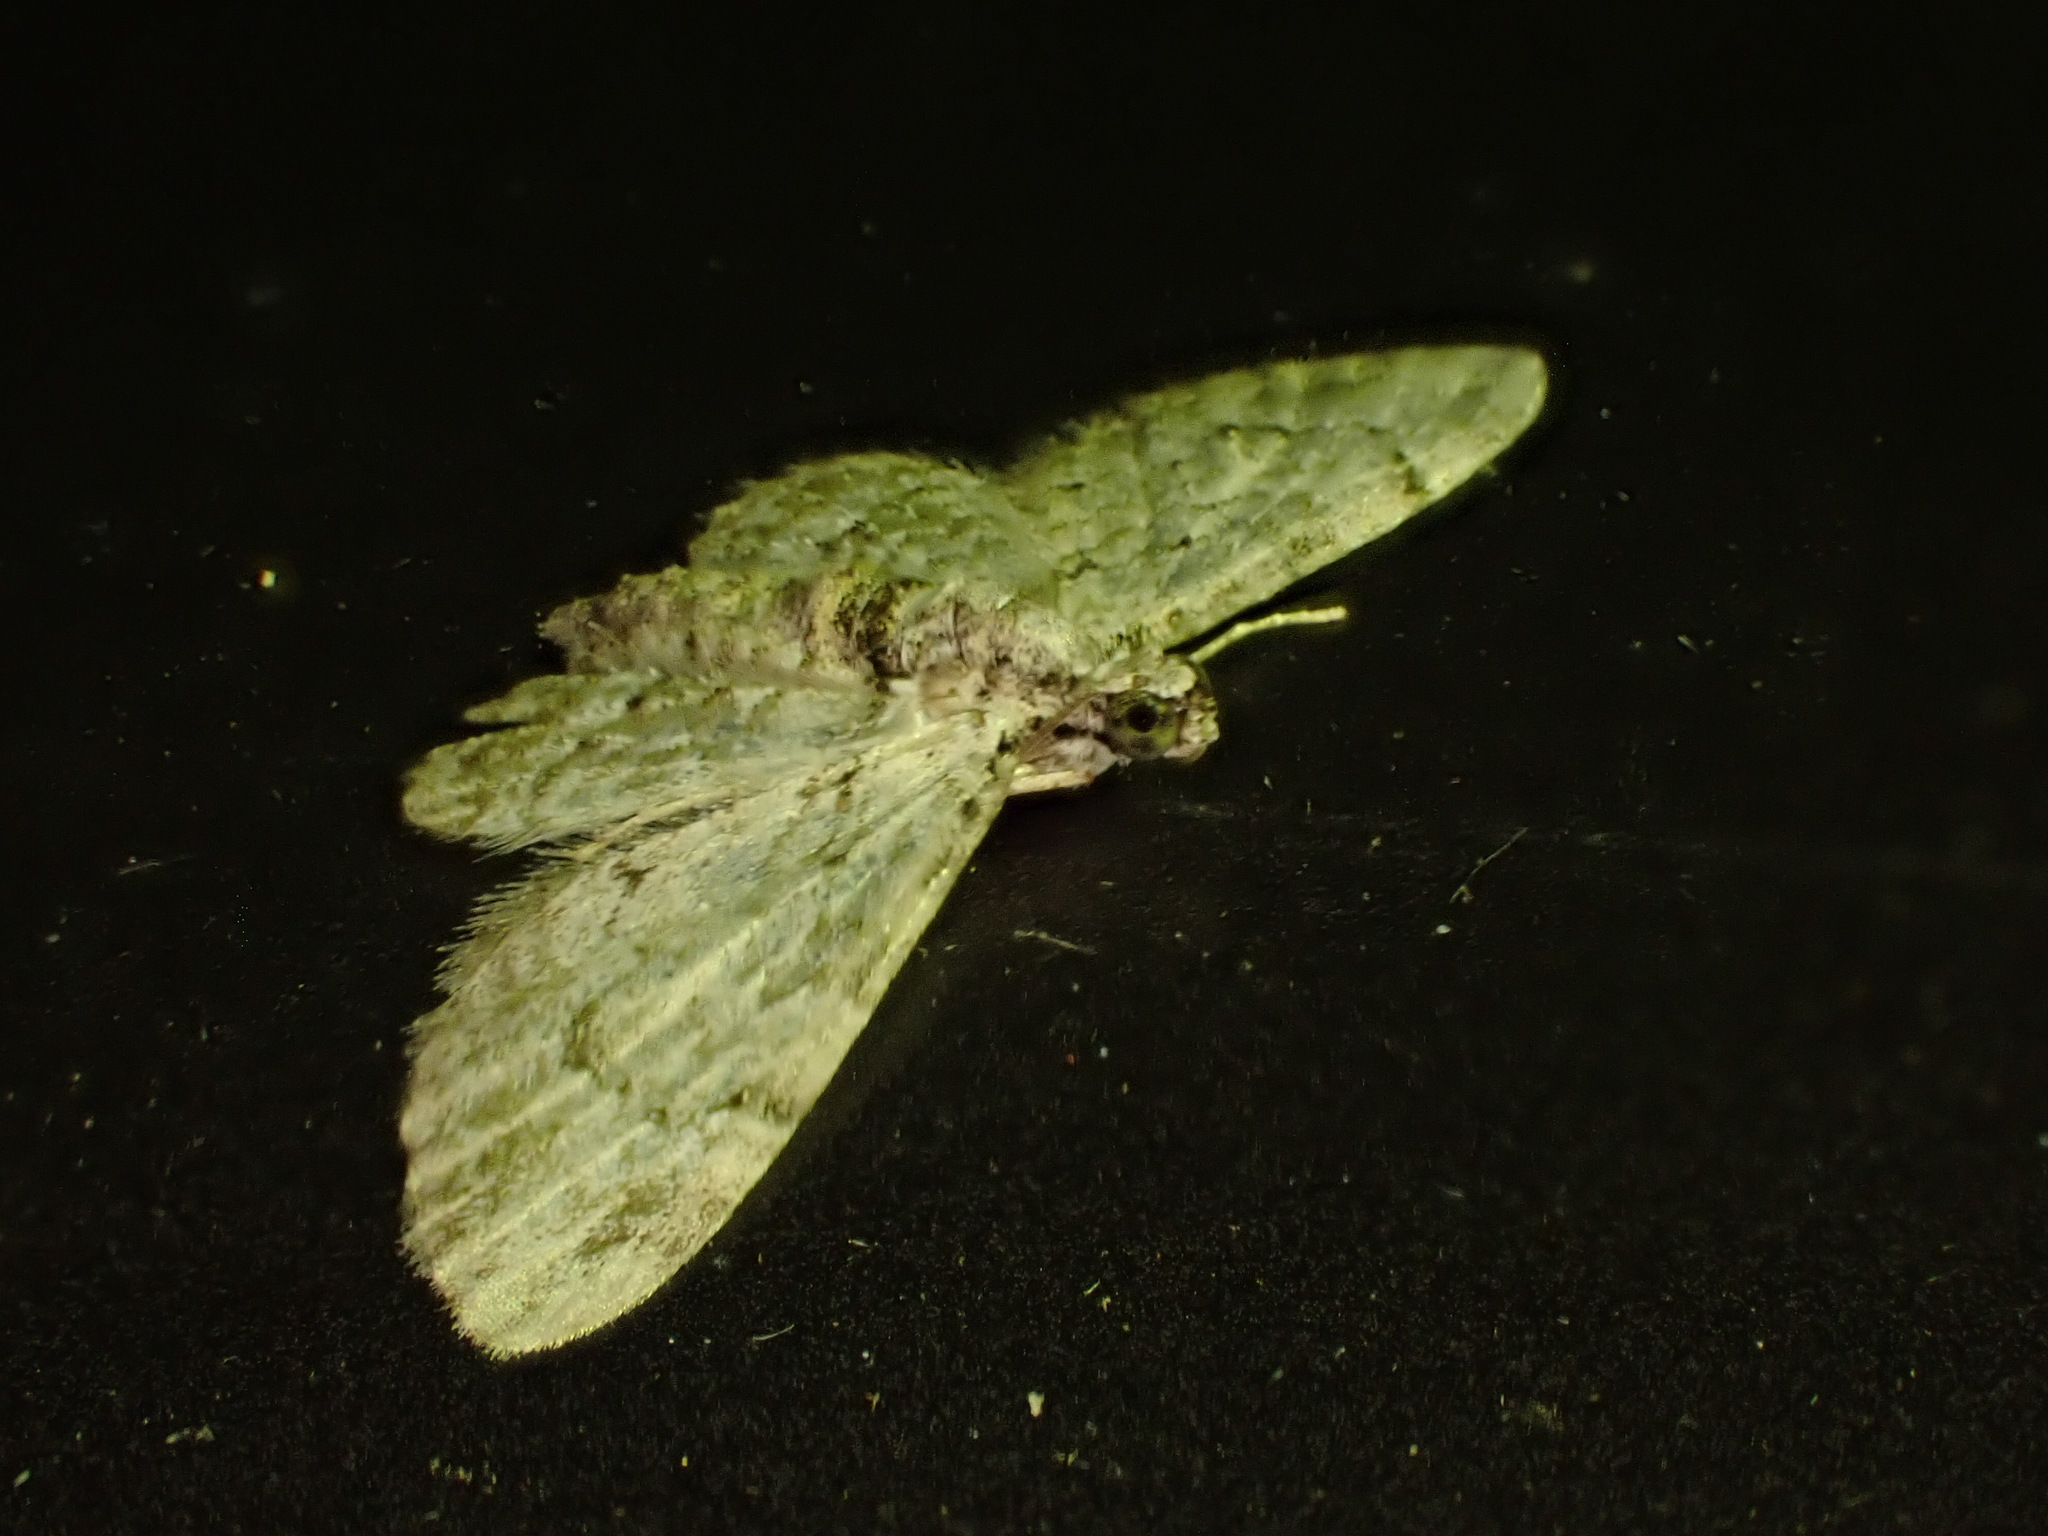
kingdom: Animalia
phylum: Arthropoda
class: Insecta
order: Lepidoptera
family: Geometridae
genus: Chloroclystis
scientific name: Chloroclystis insigillata
